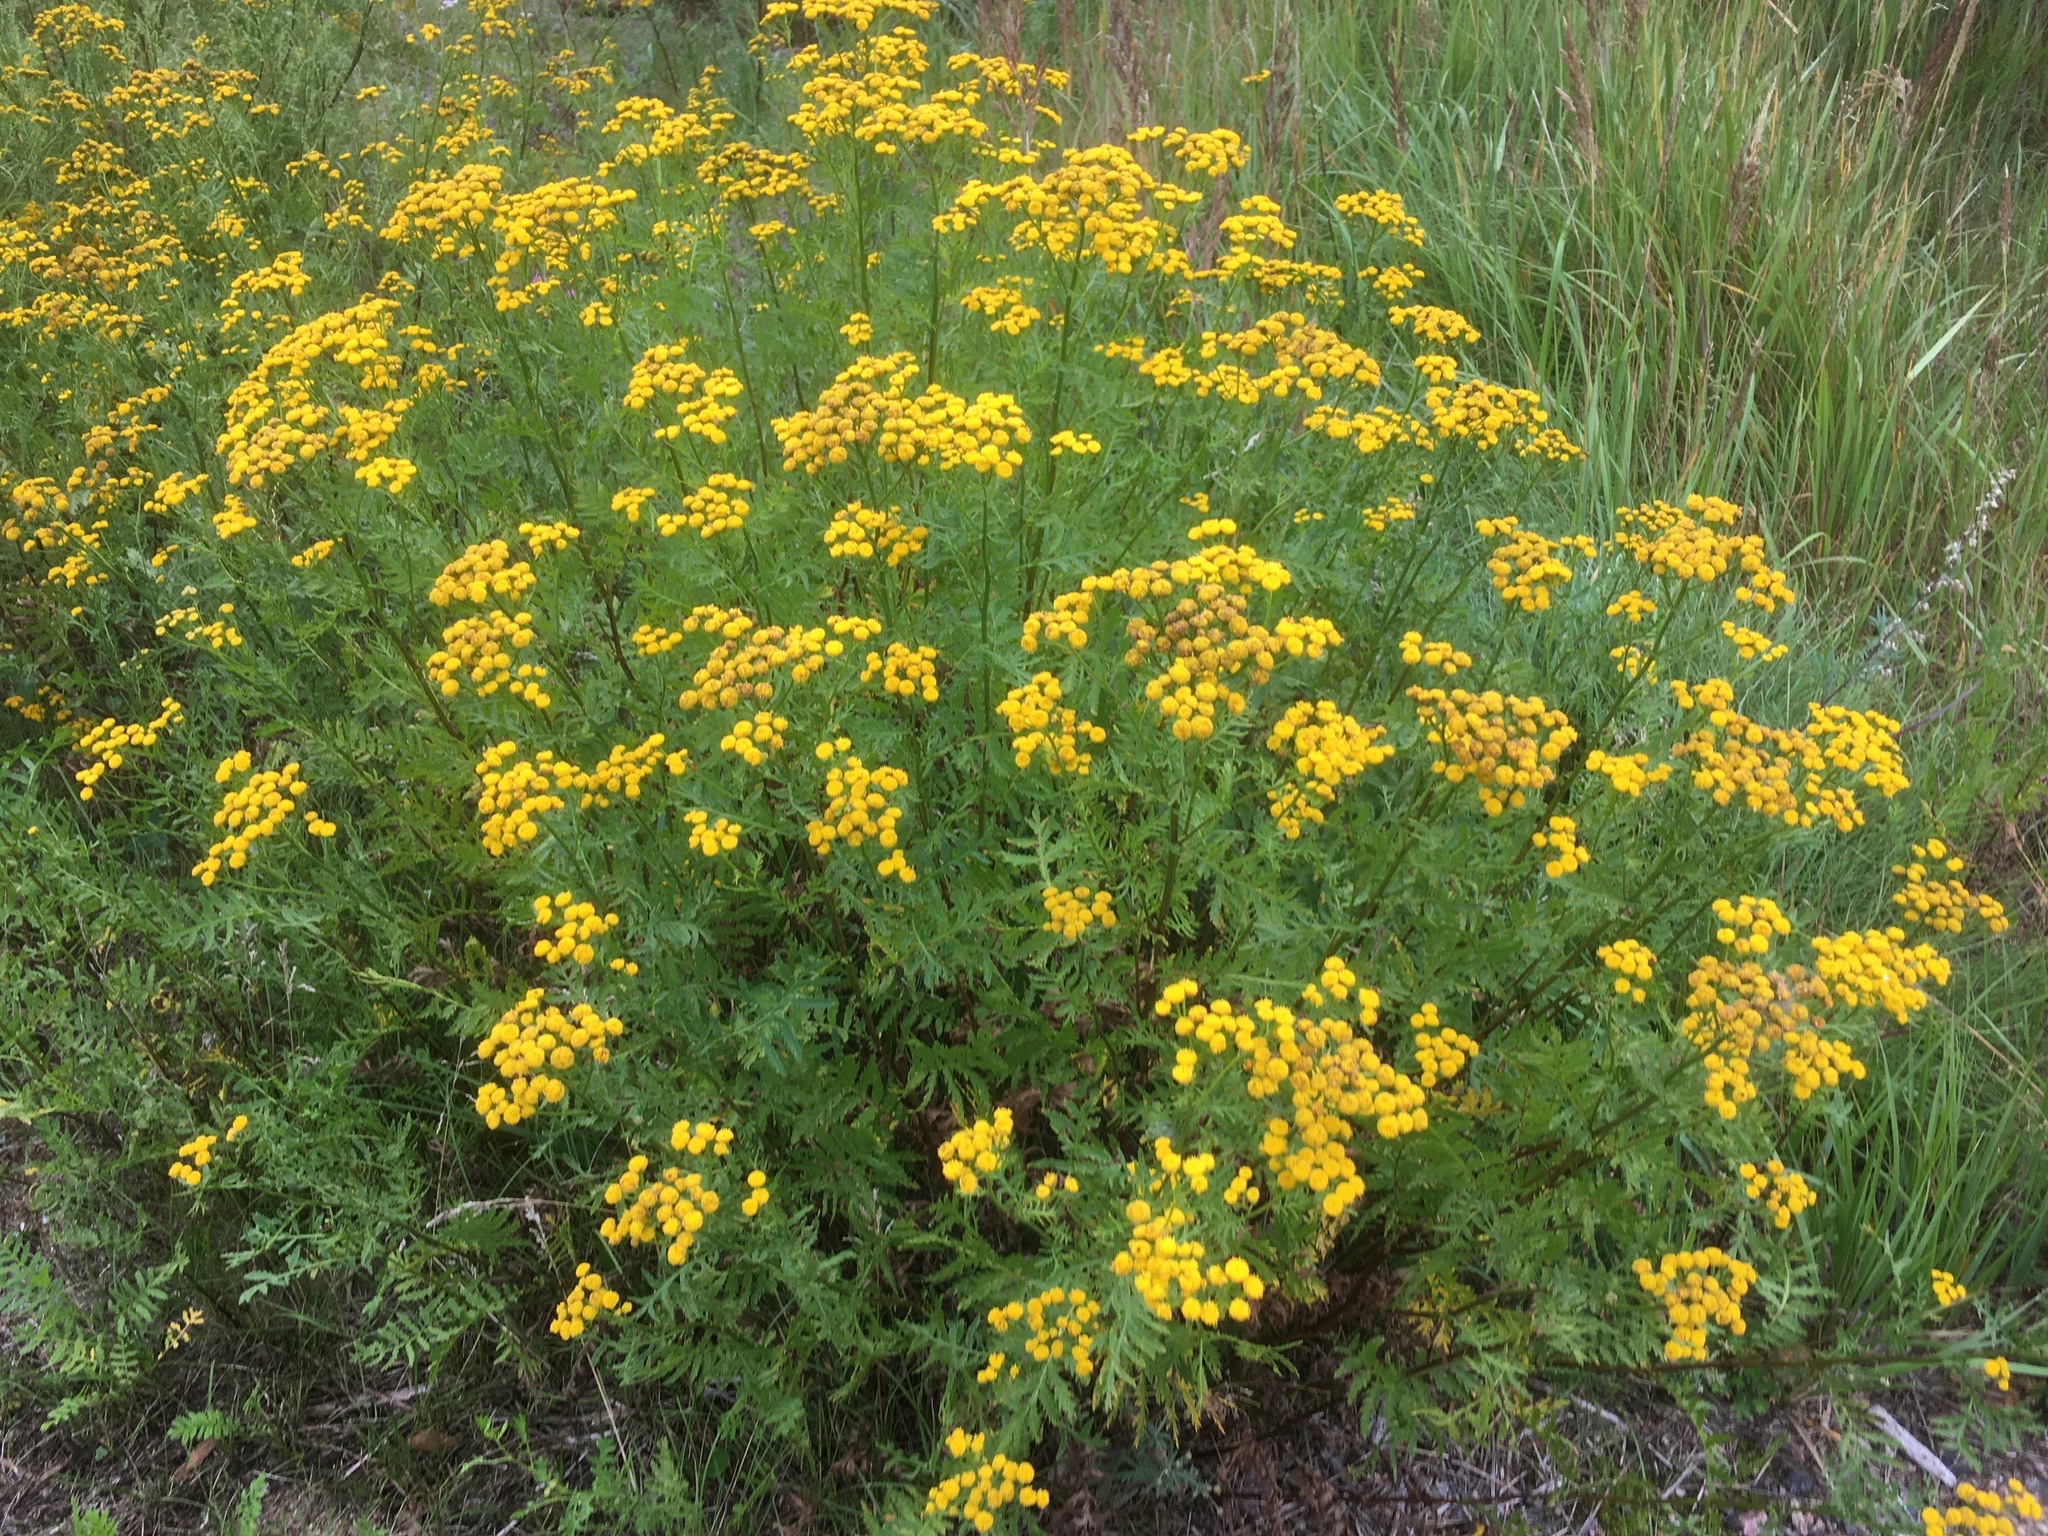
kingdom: Plantae
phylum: Tracheophyta
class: Magnoliopsida
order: Asterales
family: Asteraceae
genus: Tanacetum
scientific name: Tanacetum vulgare
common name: Common tansy
